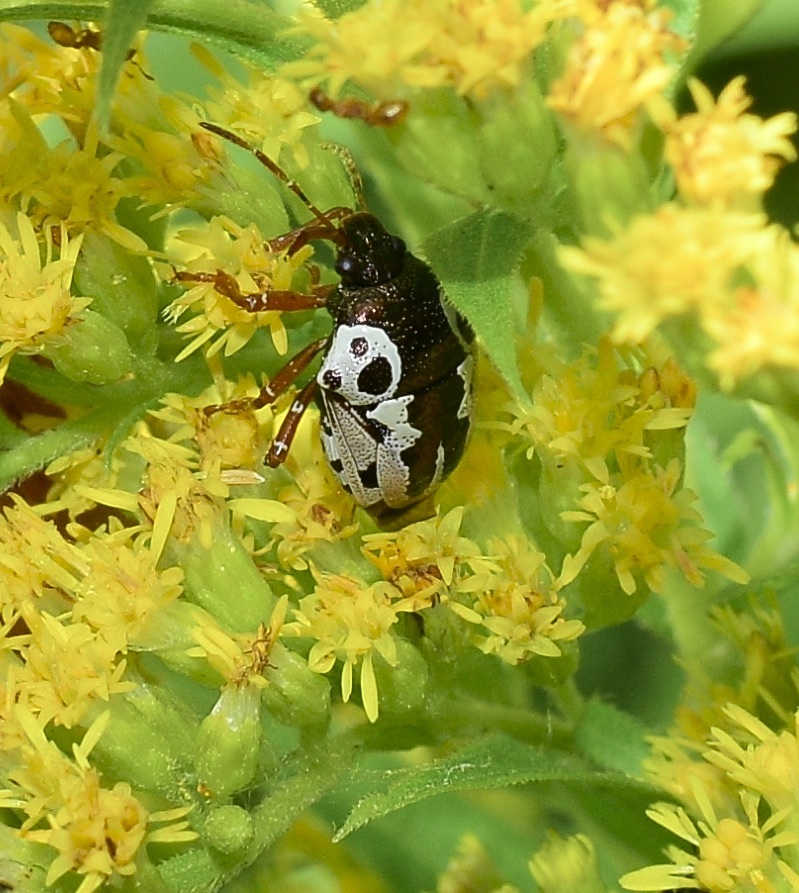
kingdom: Animalia
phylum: Arthropoda
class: Insecta
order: Hemiptera
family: Pentatomidae
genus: Stiretrus
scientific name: Stiretrus anchorago
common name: Anchor stink bug
